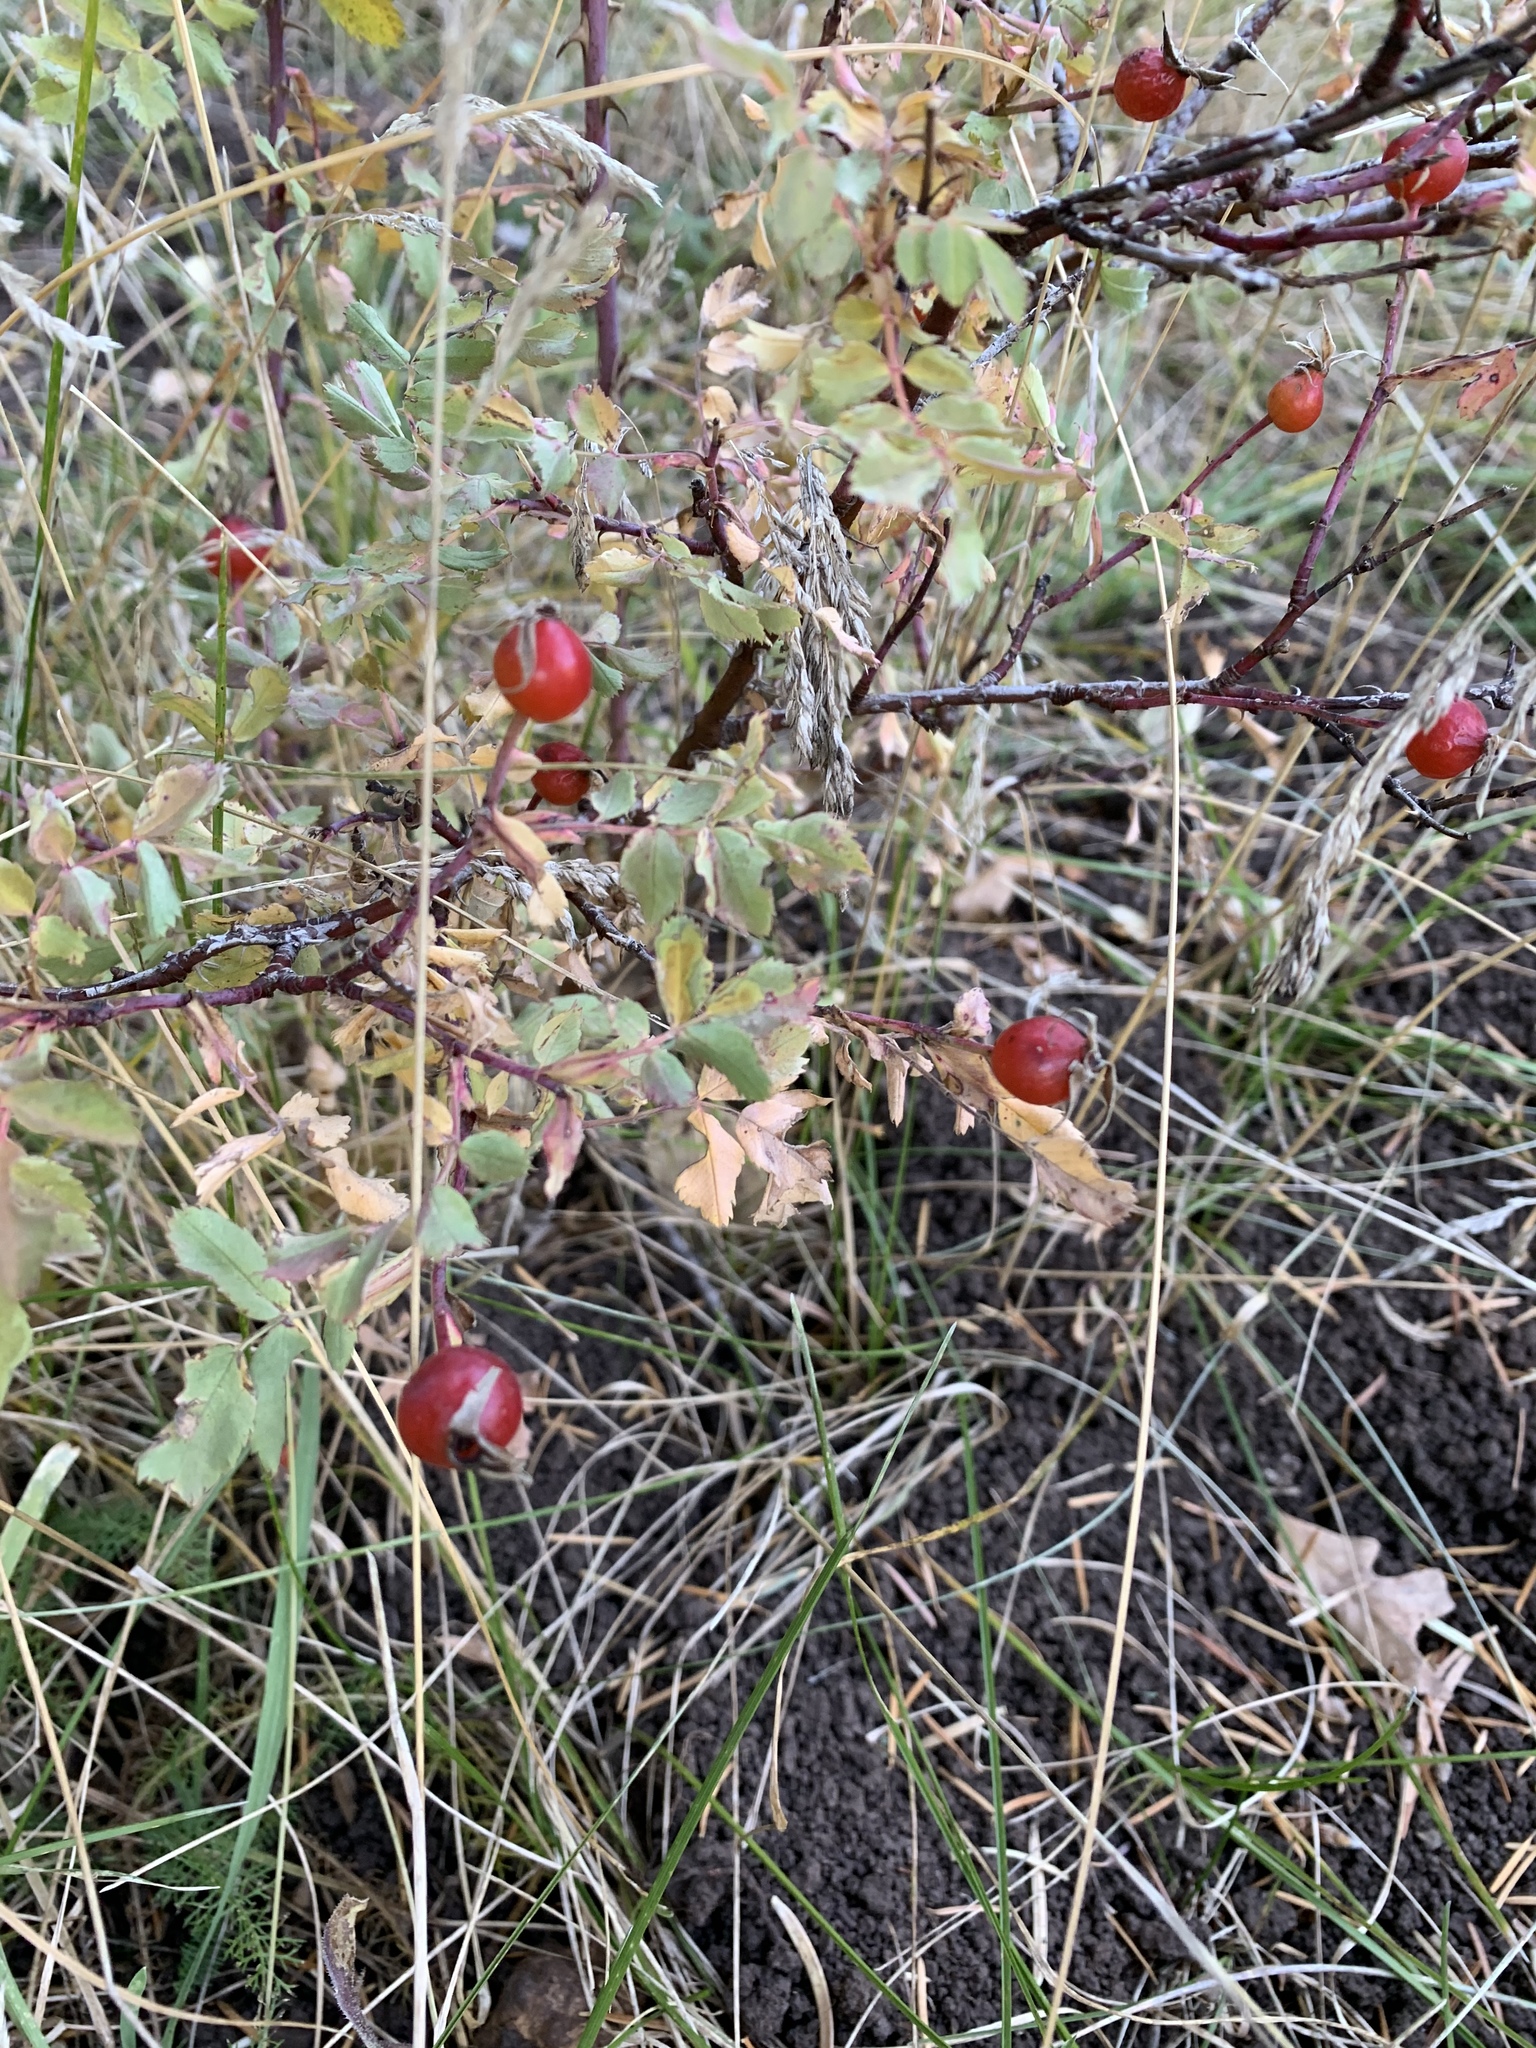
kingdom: Plantae
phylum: Tracheophyta
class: Magnoliopsida
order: Rosales
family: Rosaceae
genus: Rosa
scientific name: Rosa woodsii
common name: Woods's rose
